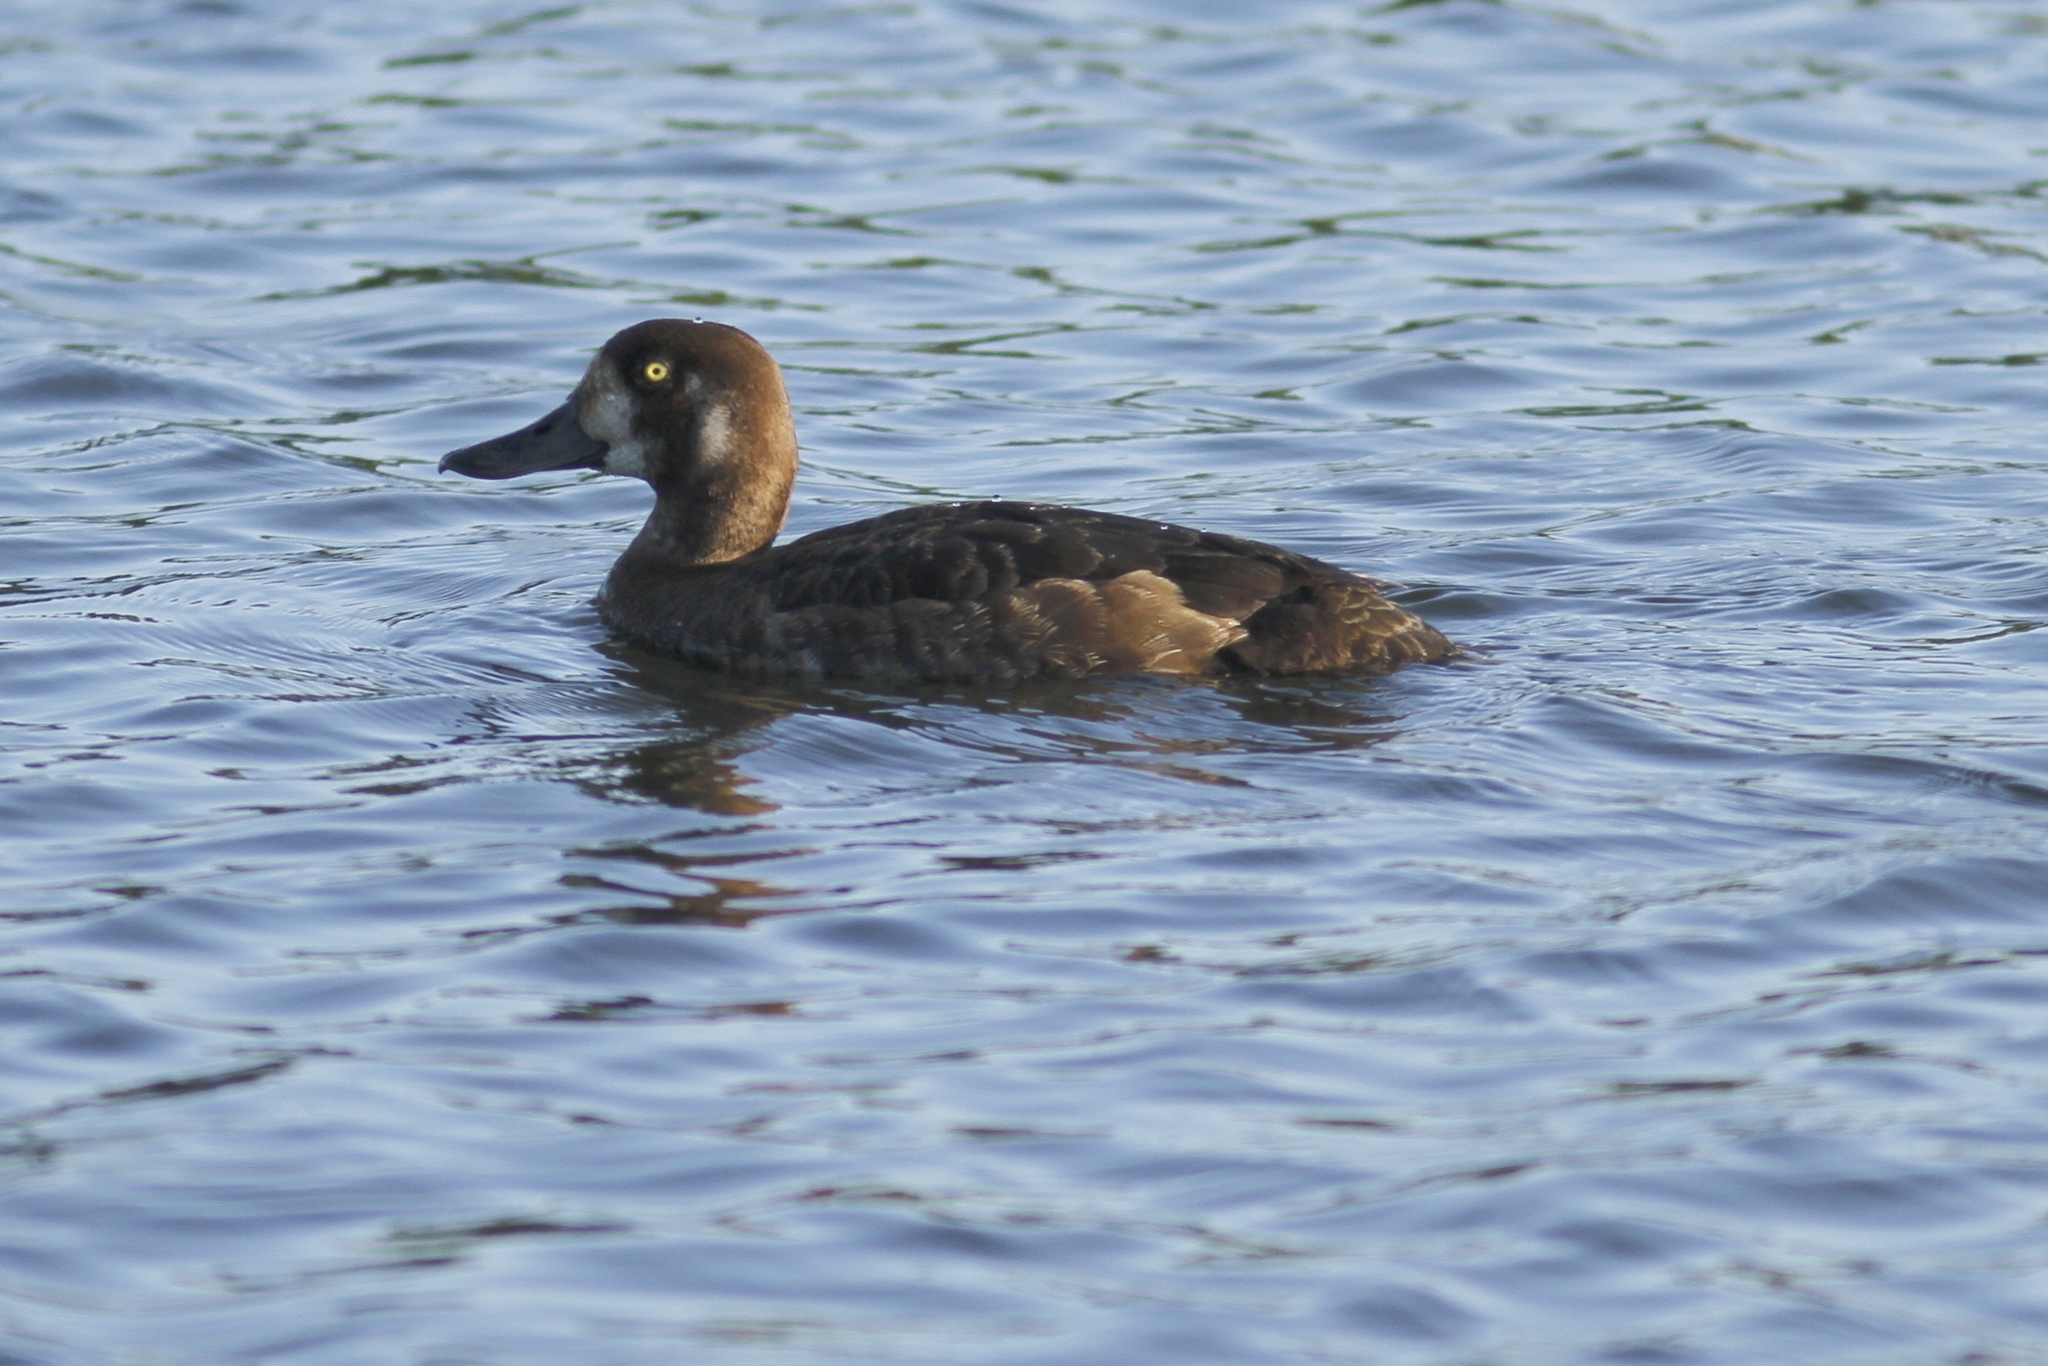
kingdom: Animalia
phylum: Chordata
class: Aves
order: Anseriformes
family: Anatidae
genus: Aythya
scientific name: Aythya marila
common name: Greater scaup
